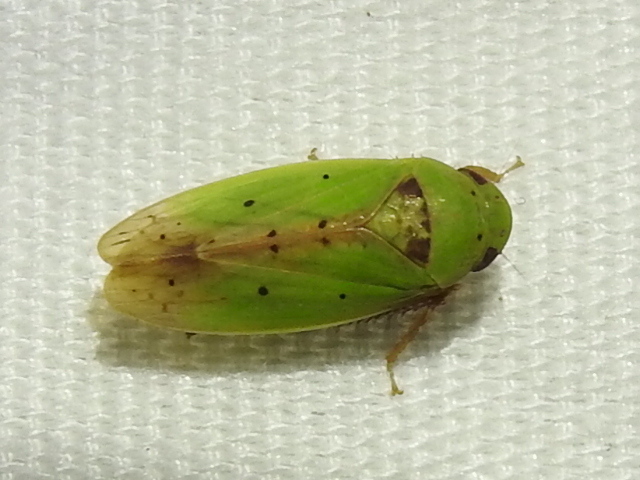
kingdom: Animalia
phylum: Arthropoda
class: Insecta
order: Hemiptera
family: Cicadellidae
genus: Ponana
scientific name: Ponana
